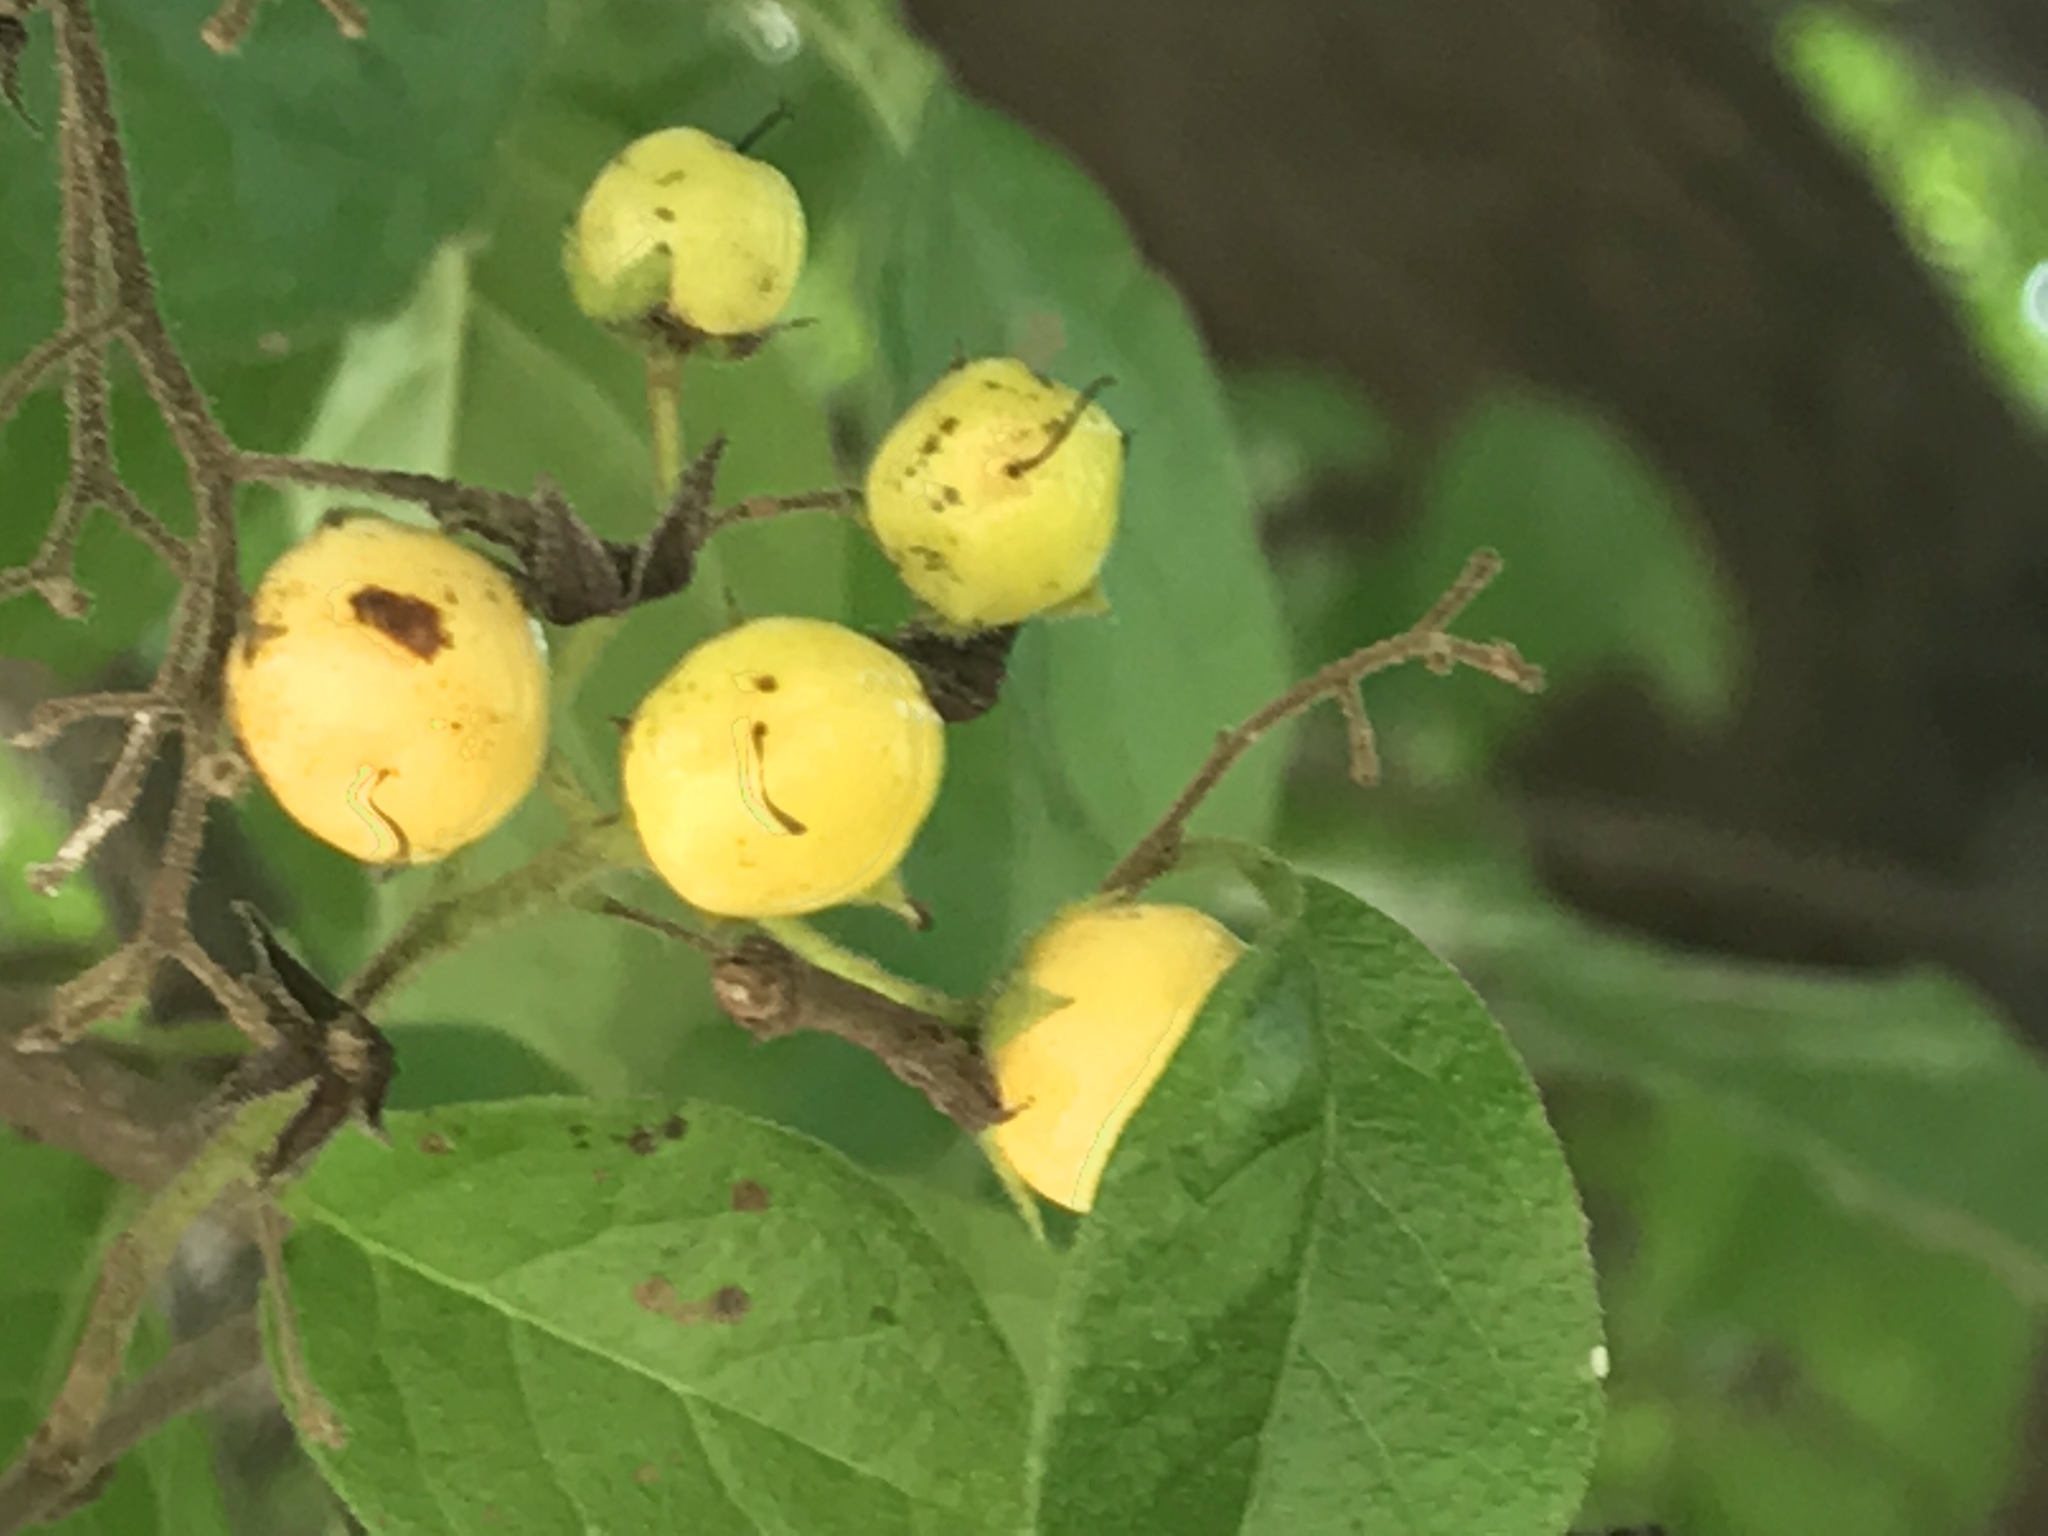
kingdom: Plantae
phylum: Tracheophyta
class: Magnoliopsida
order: Boraginales
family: Ehretiaceae
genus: Ehretia
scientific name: Ehretia anacua
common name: Sugarberry
